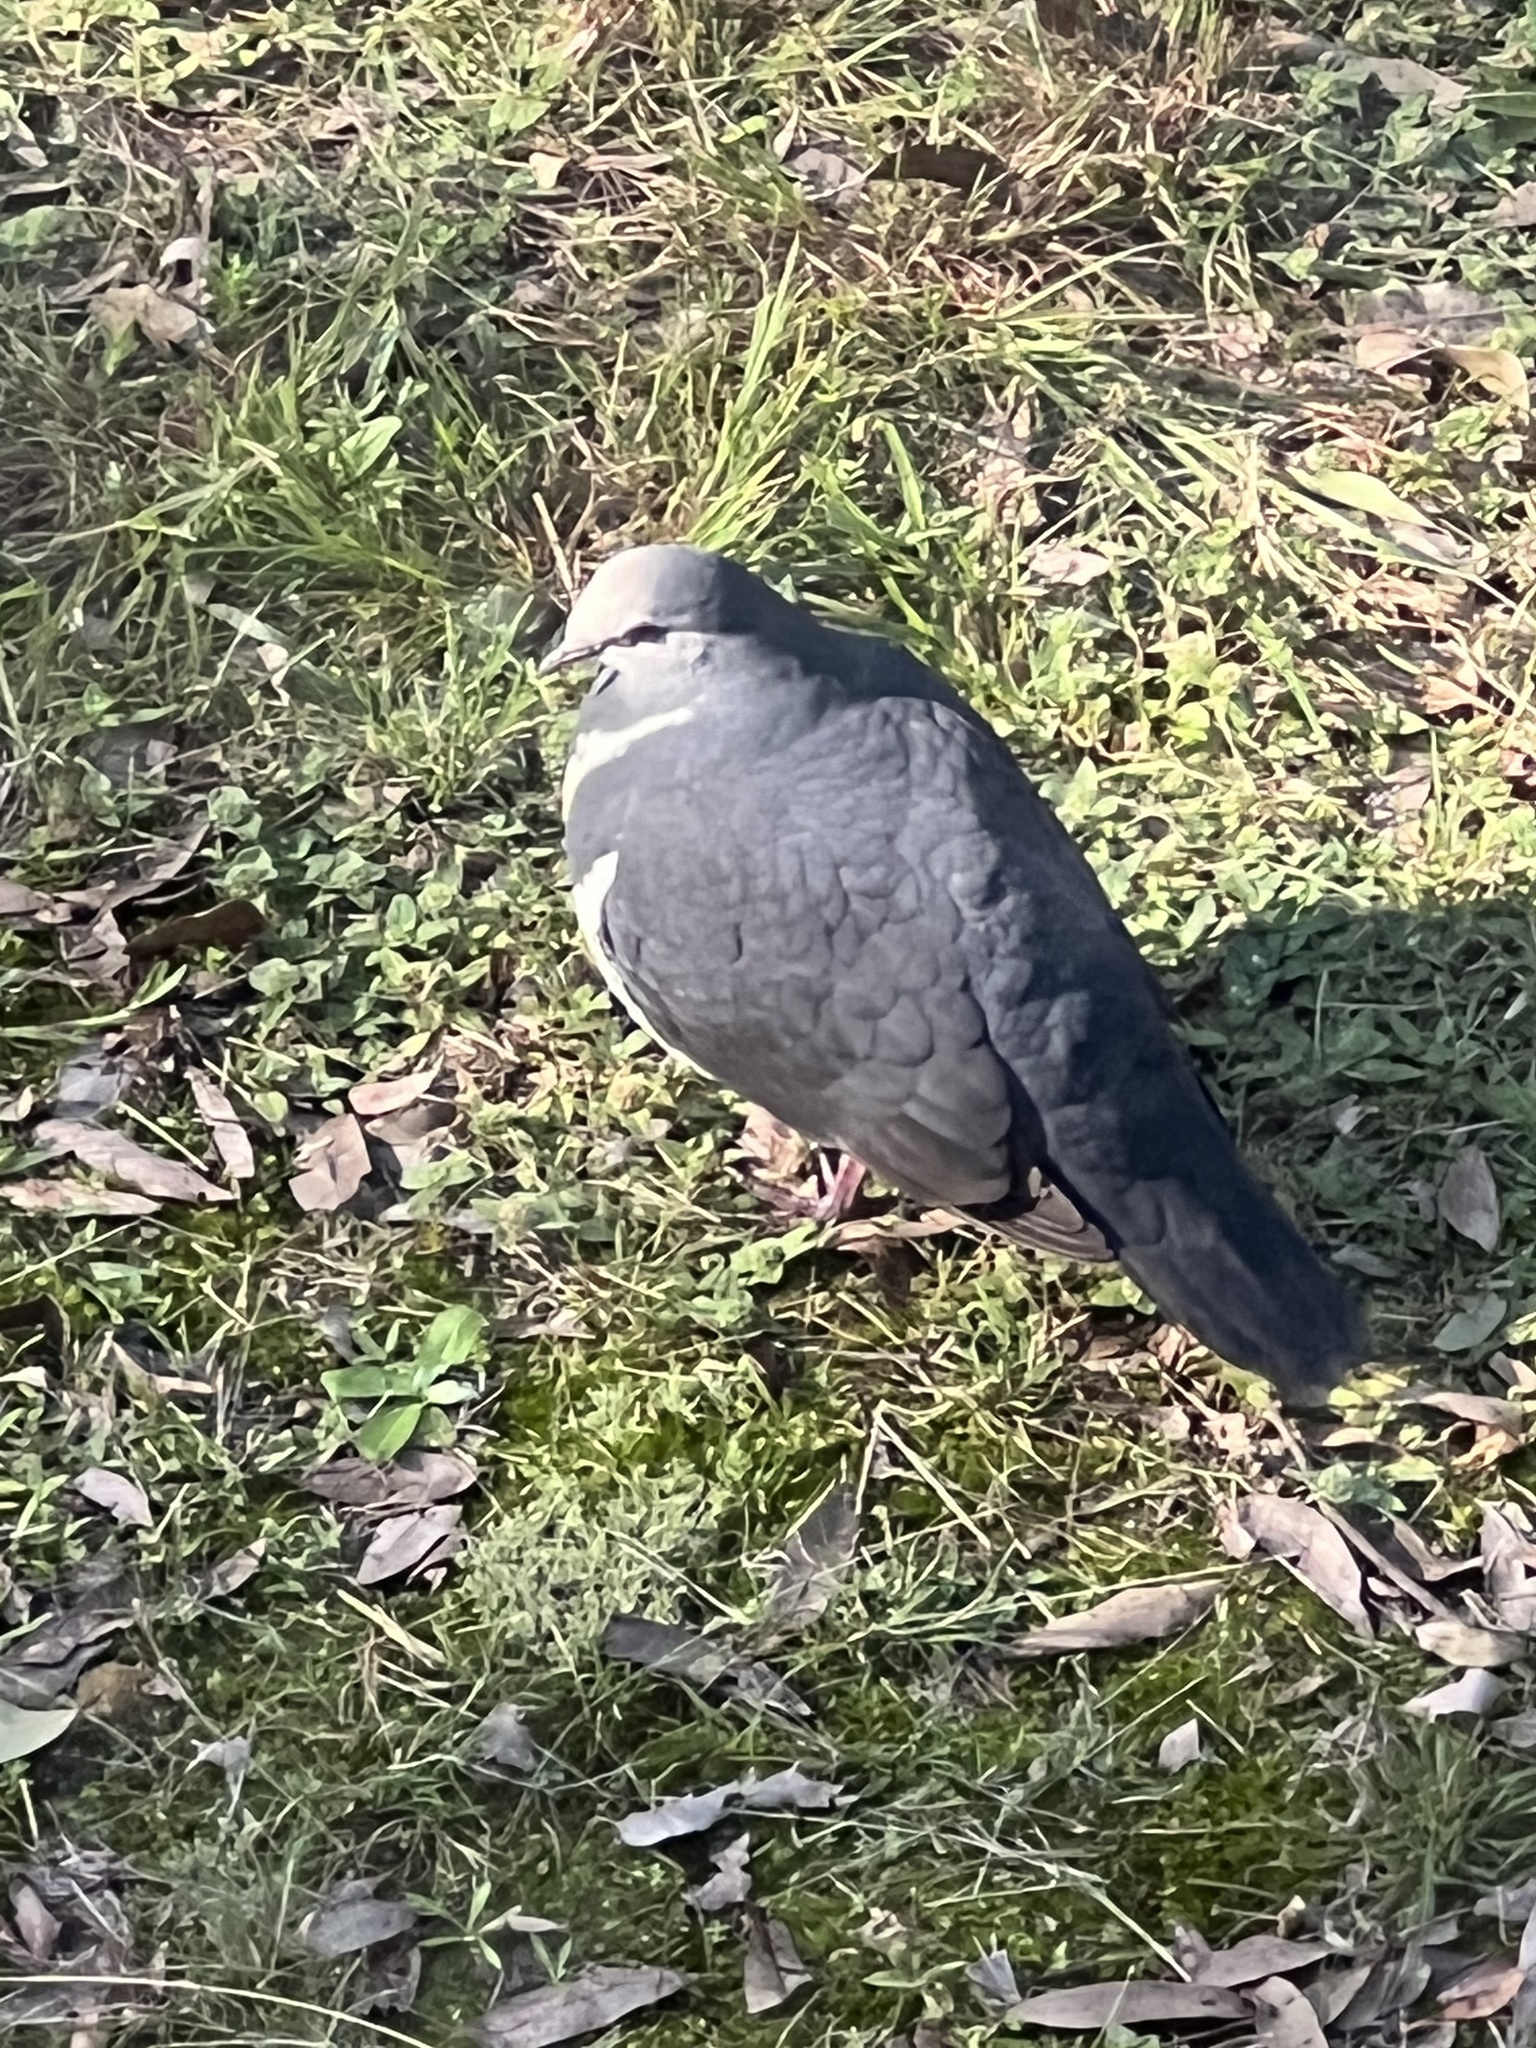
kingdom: Animalia
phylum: Chordata
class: Aves
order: Columbiformes
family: Columbidae
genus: Leucosarcia
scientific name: Leucosarcia melanoleuca
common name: Wonga pigeon
